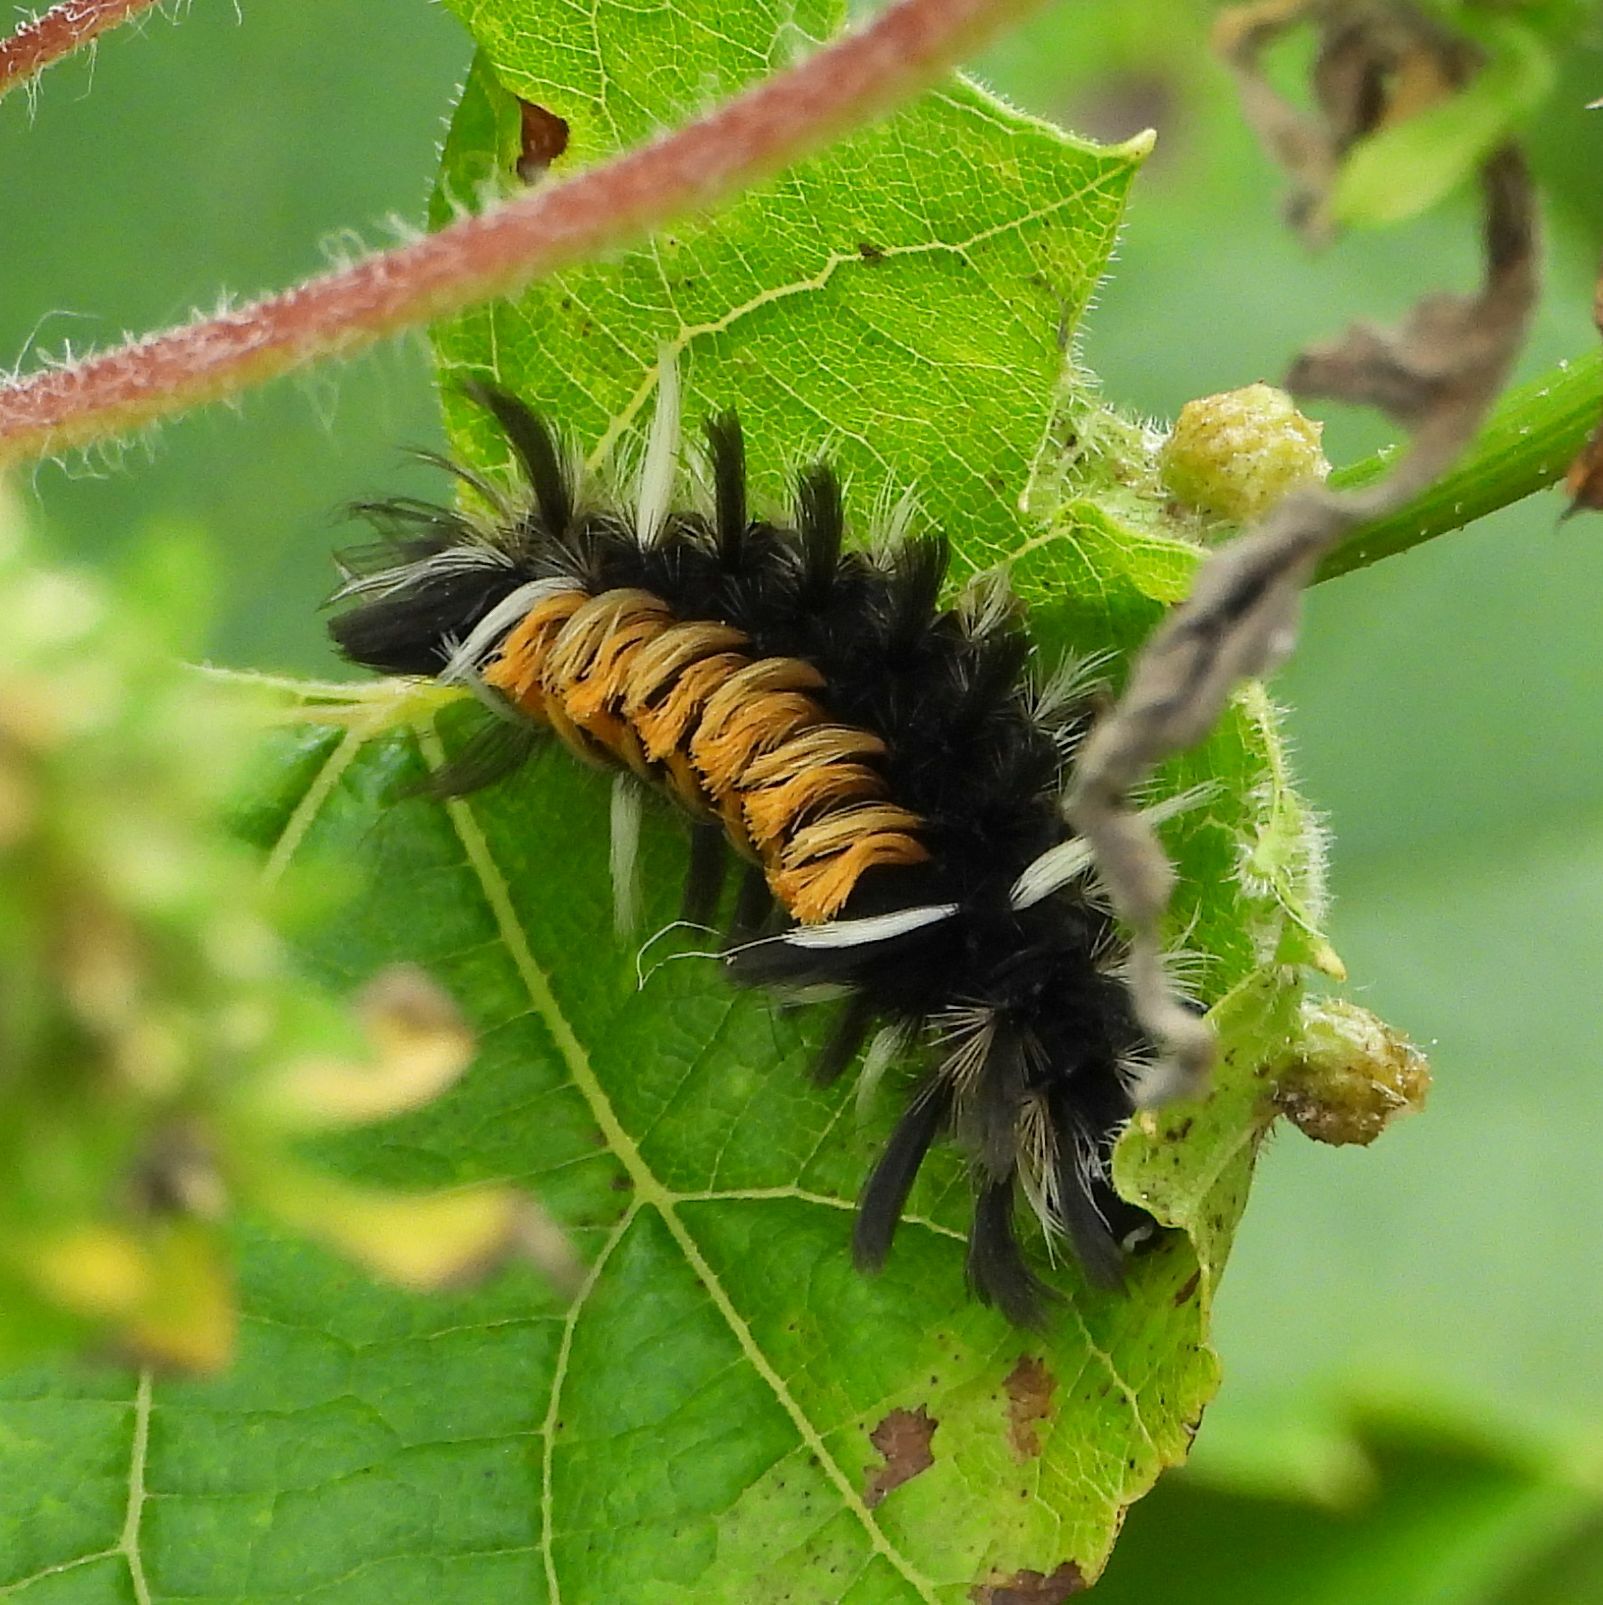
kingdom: Animalia
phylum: Arthropoda
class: Insecta
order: Lepidoptera
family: Erebidae
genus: Euchaetes
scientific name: Euchaetes egle
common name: Milkweed tussock moth
